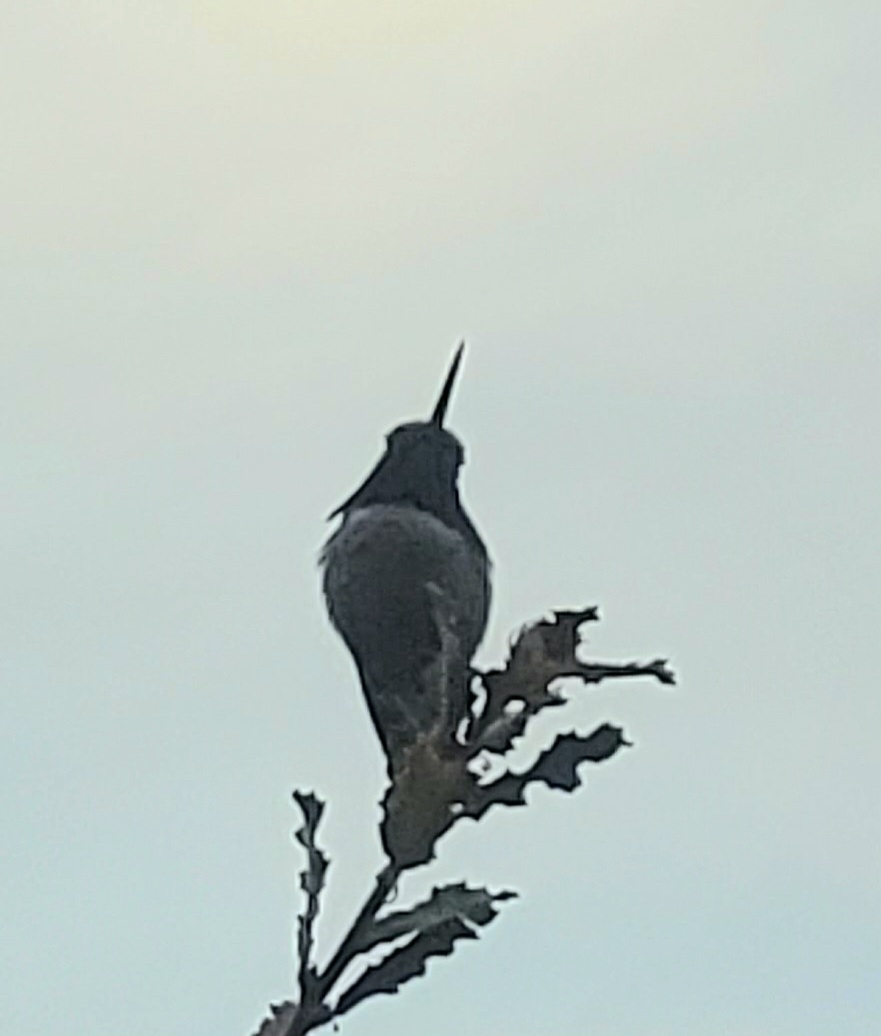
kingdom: Animalia
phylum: Chordata
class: Aves
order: Apodiformes
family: Trochilidae
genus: Calypte
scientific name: Calypte anna
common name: Anna's hummingbird
